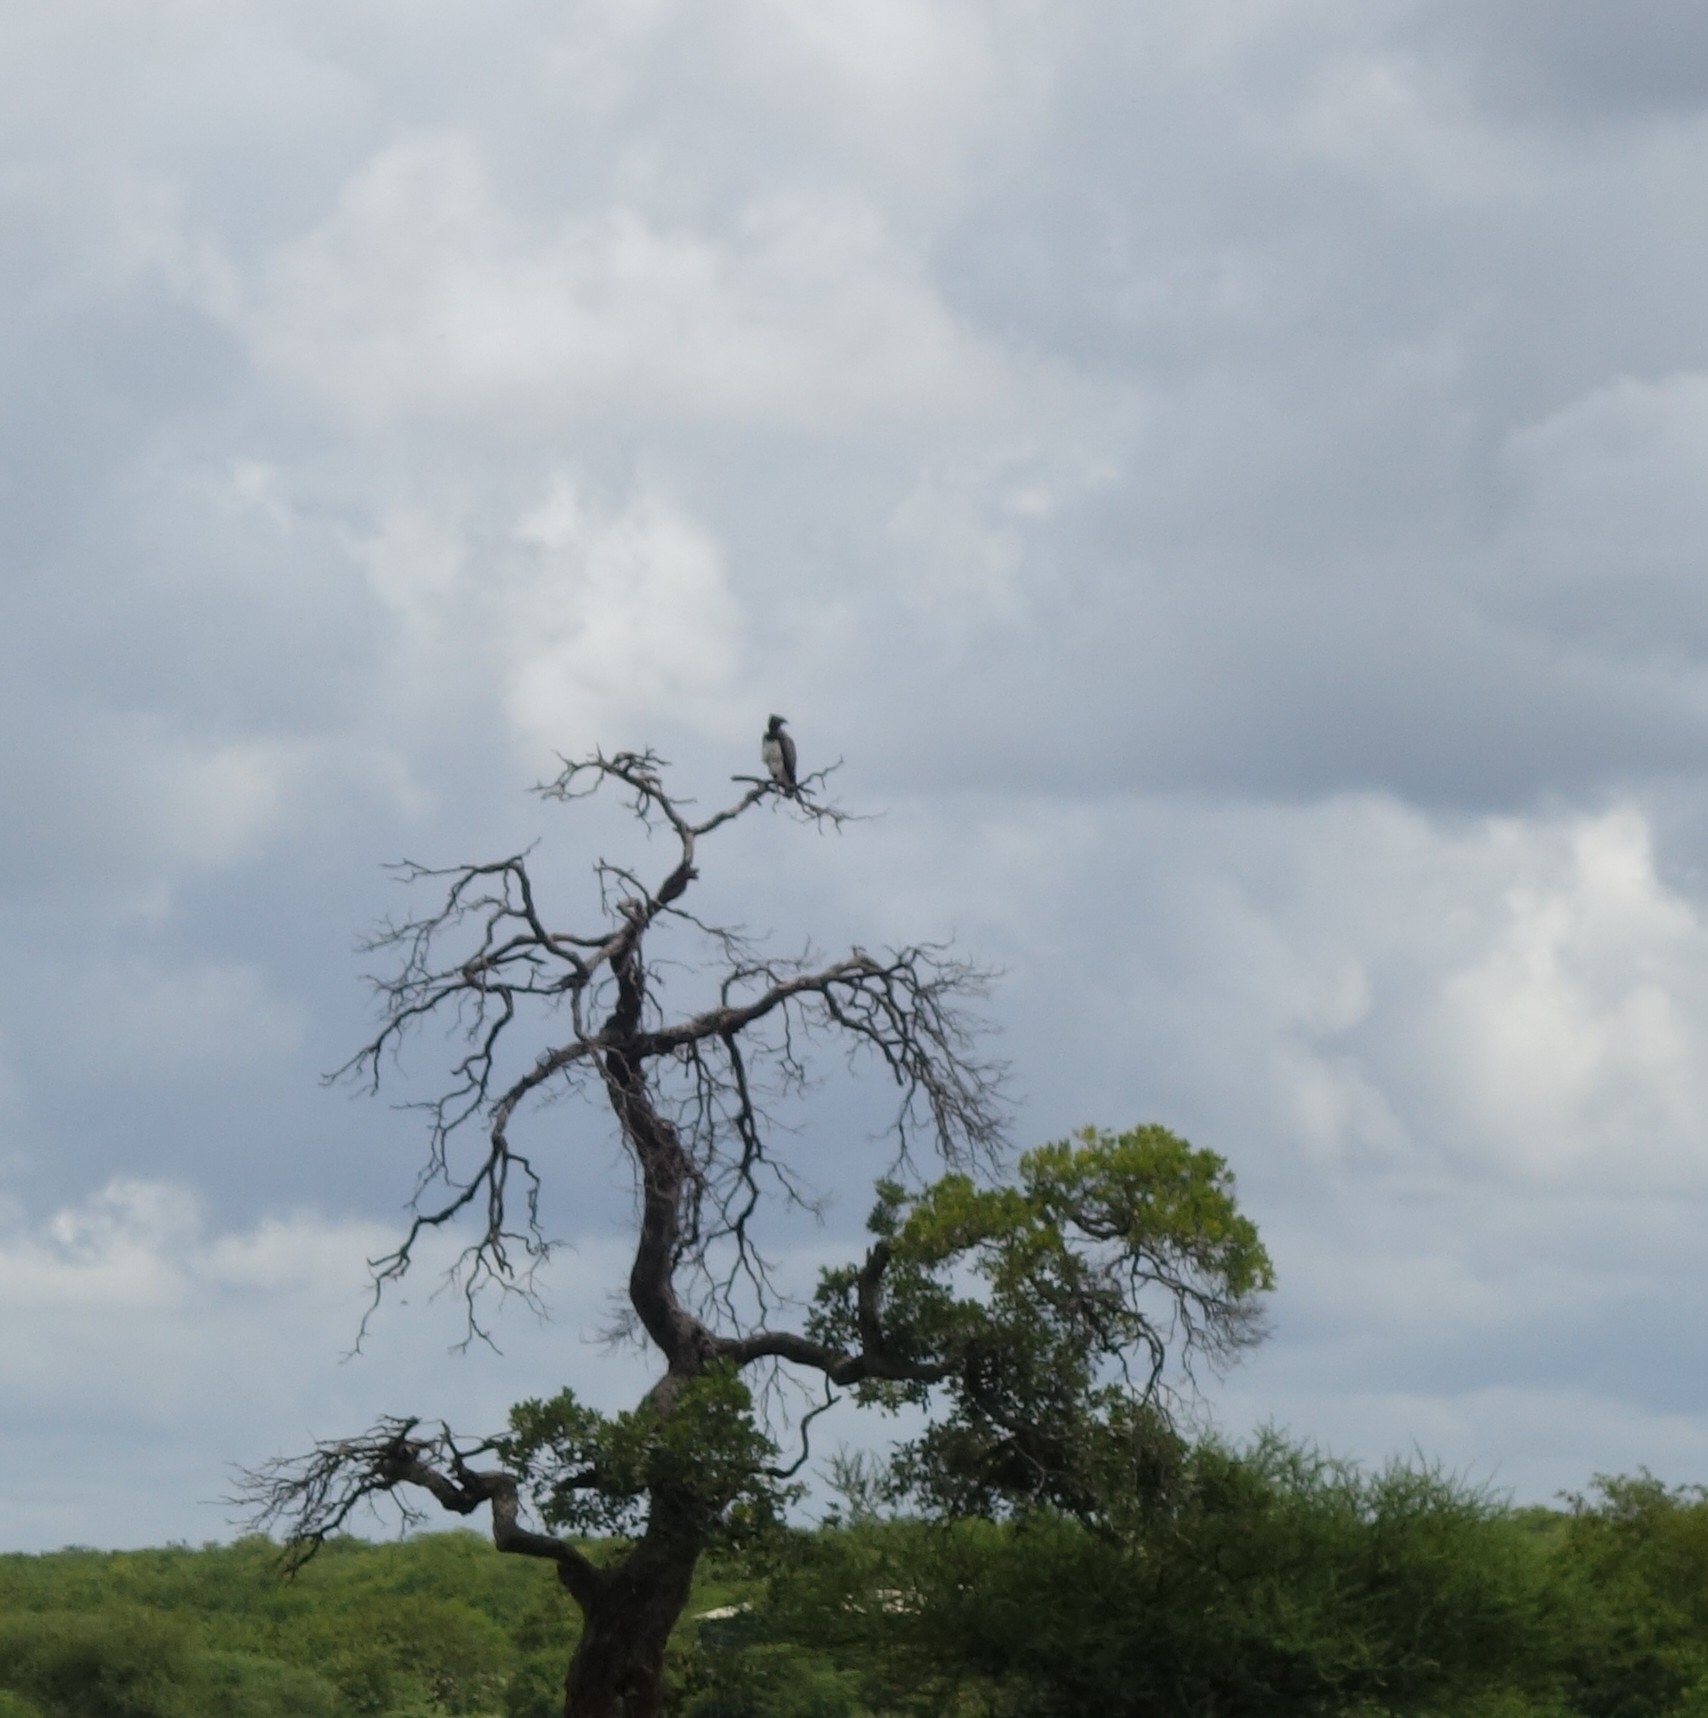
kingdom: Animalia
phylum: Chordata
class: Aves
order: Accipitriformes
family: Accipitridae
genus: Polemaetus
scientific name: Polemaetus bellicosus
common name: Martial eagle
